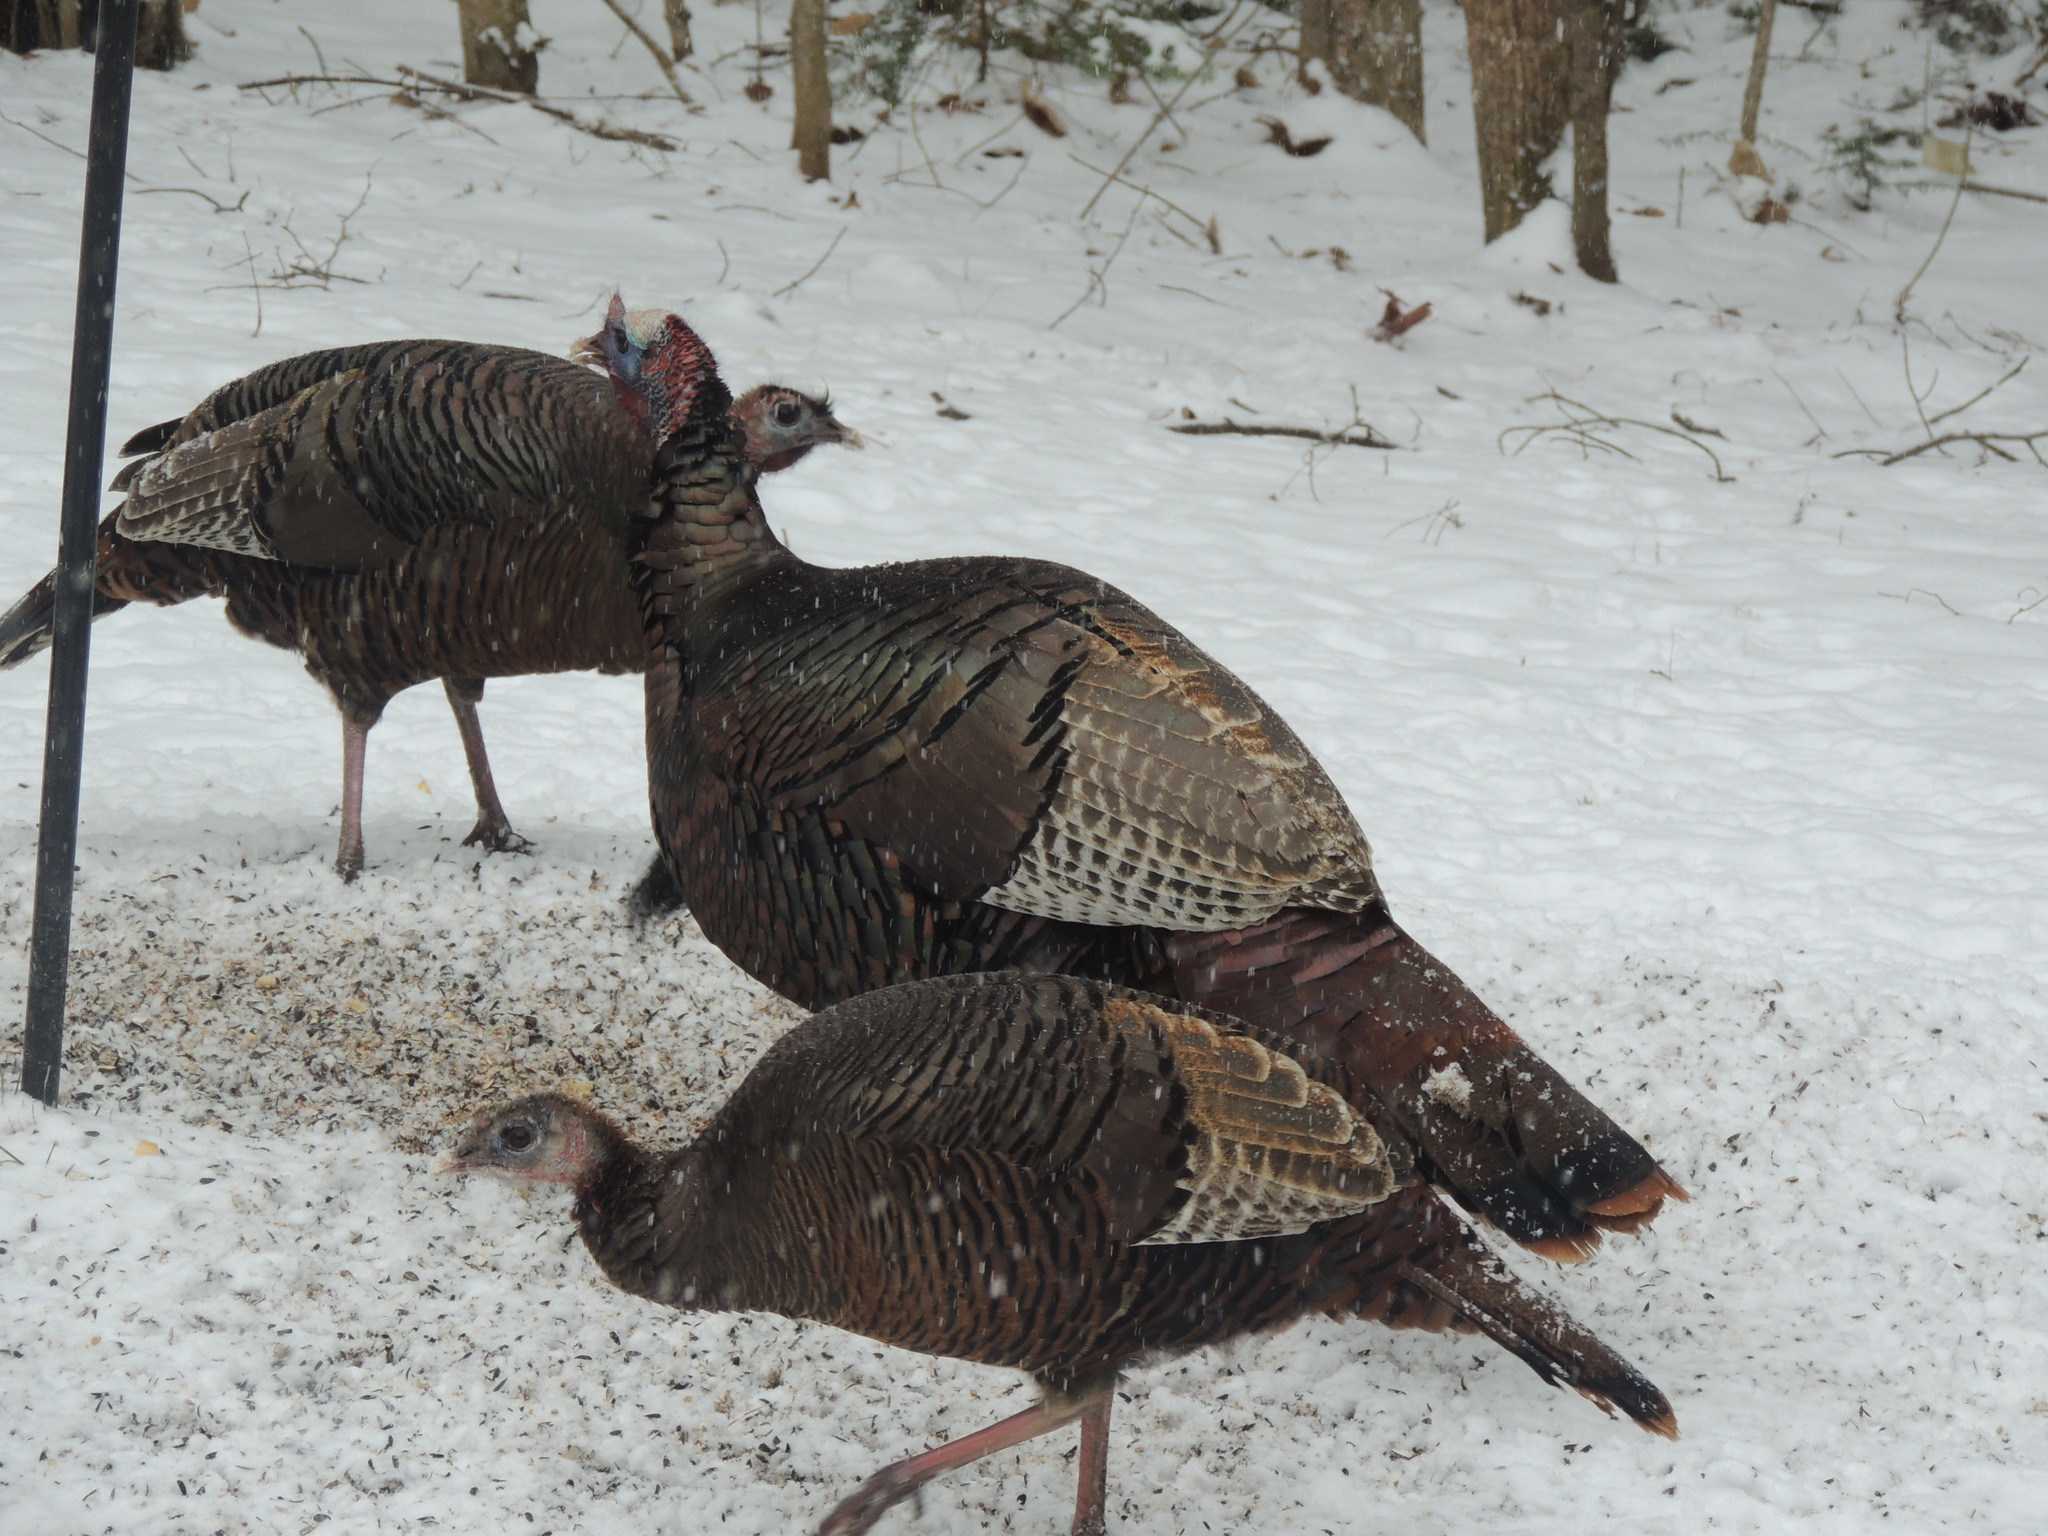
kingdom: Animalia
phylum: Chordata
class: Aves
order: Galliformes
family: Phasianidae
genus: Meleagris
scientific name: Meleagris gallopavo
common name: Wild turkey
